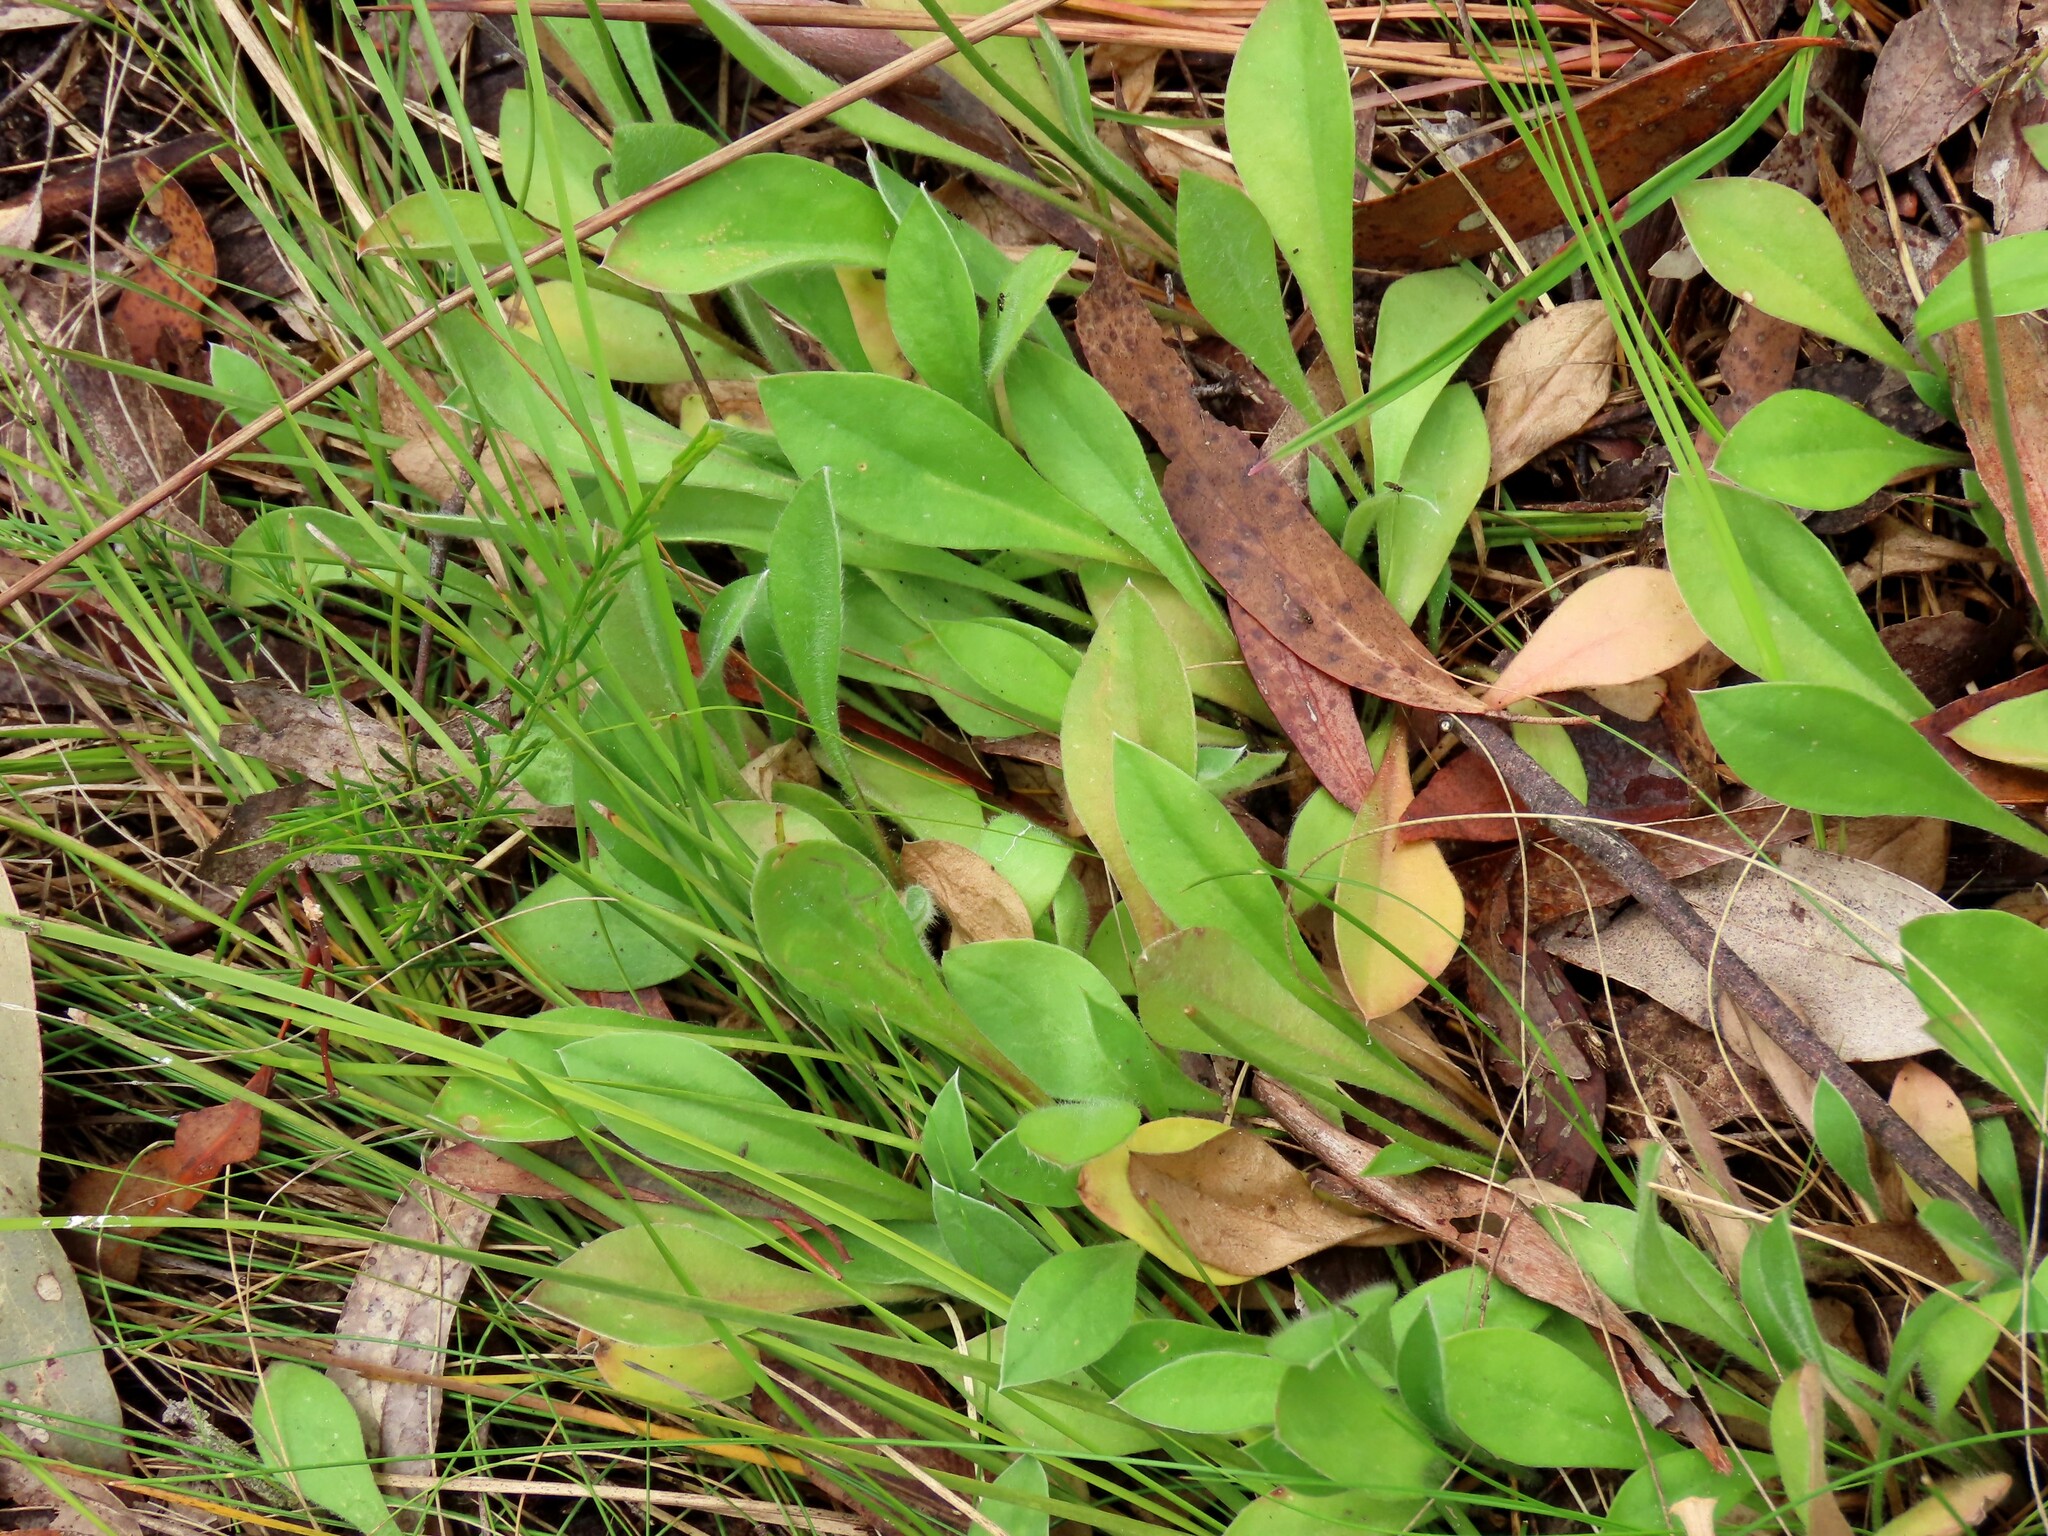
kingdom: Plantae
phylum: Tracheophyta
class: Magnoliopsida
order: Asterales
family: Goodeniaceae
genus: Brunonia
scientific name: Brunonia australis
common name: Blue pincushion
